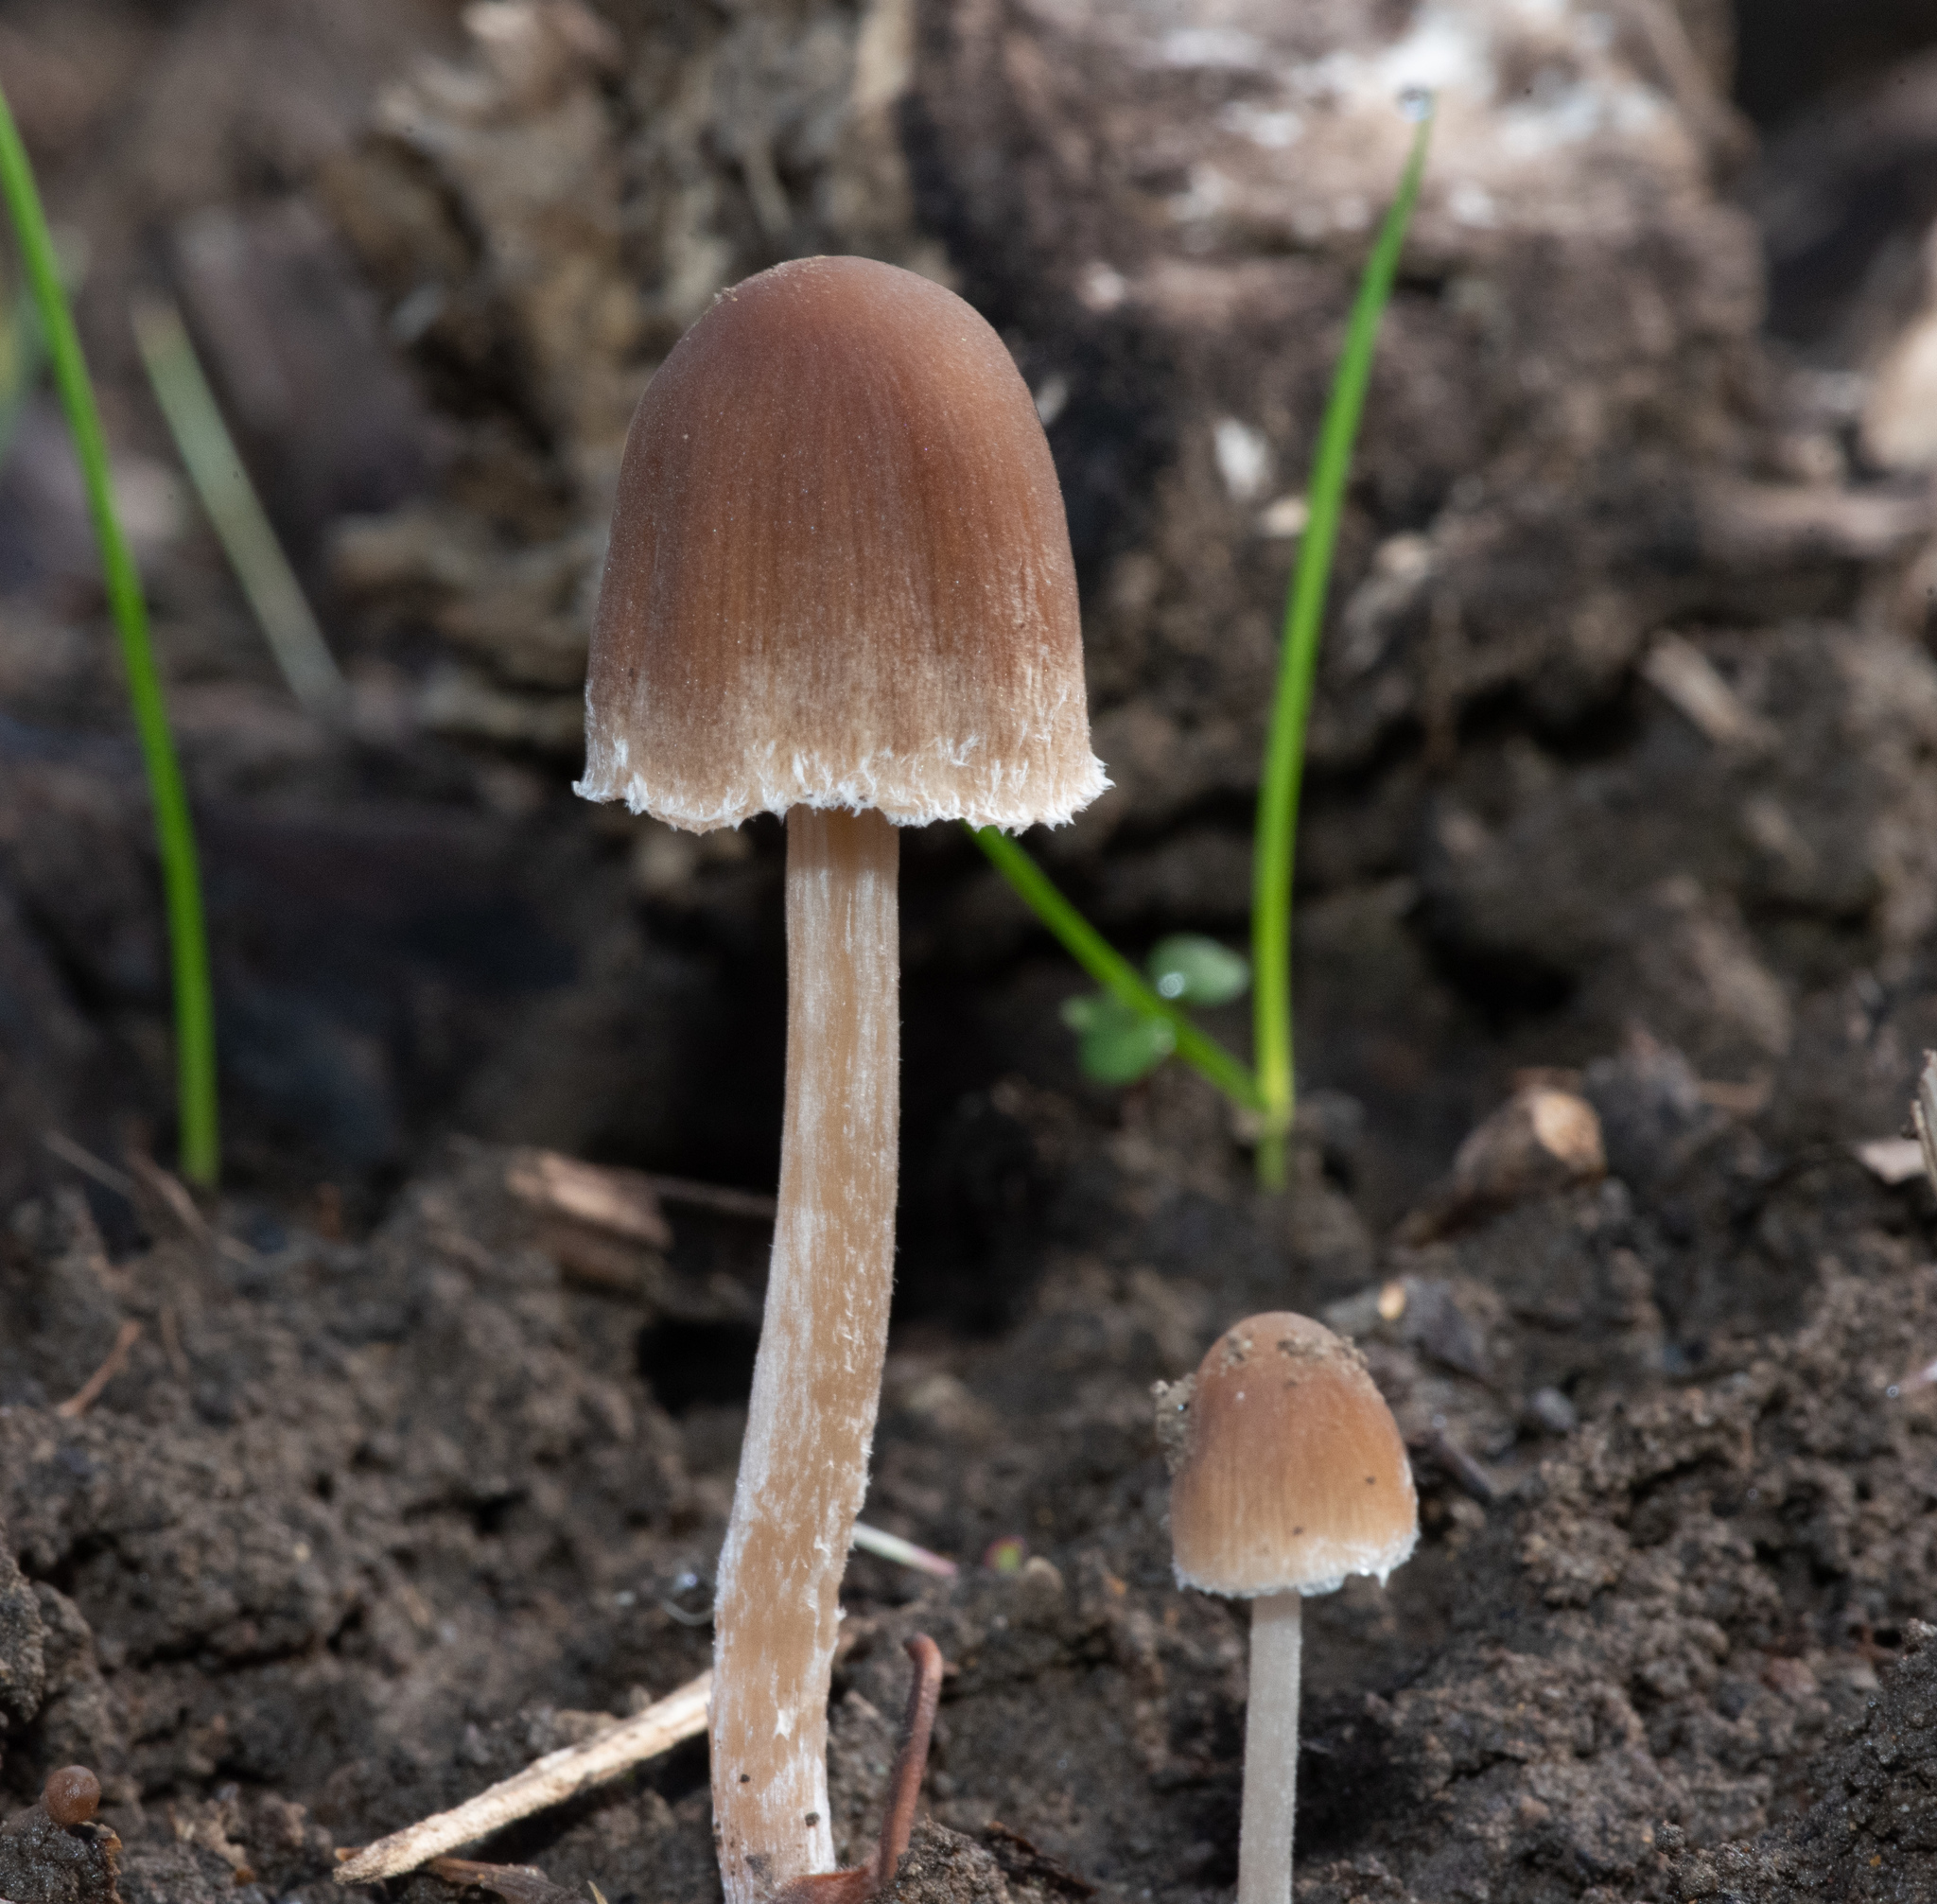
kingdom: Fungi
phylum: Basidiomycota
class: Agaricomycetes
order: Agaricales
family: Psathyrellaceae
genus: Psathyrella
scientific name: Psathyrella longipes
